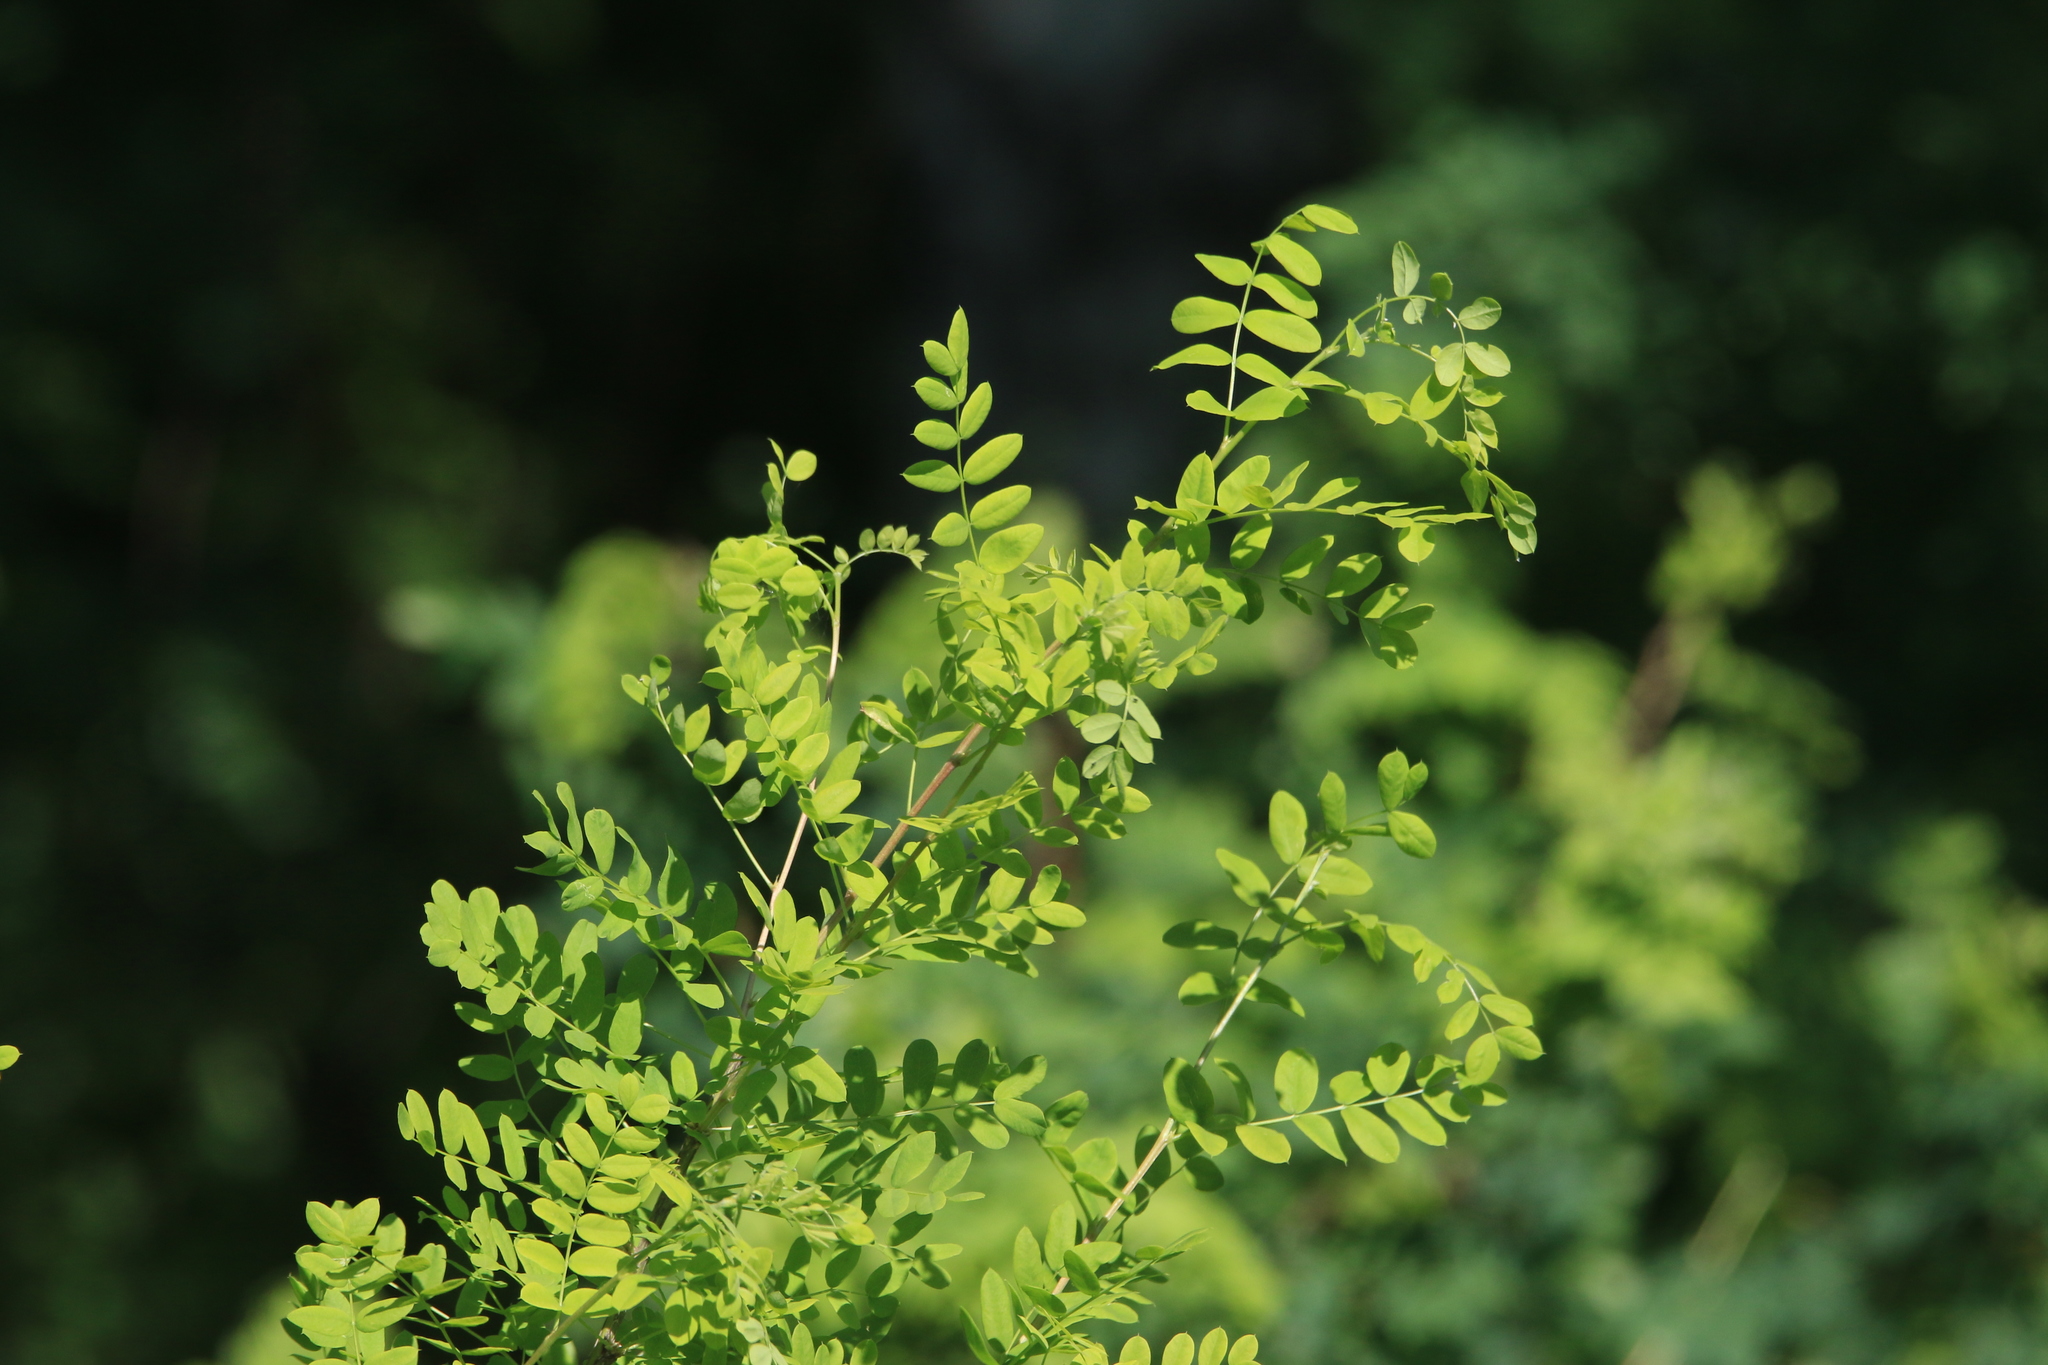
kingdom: Plantae
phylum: Tracheophyta
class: Magnoliopsida
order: Fabales
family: Fabaceae
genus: Caragana
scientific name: Caragana arborescens
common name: Siberian peashrub
